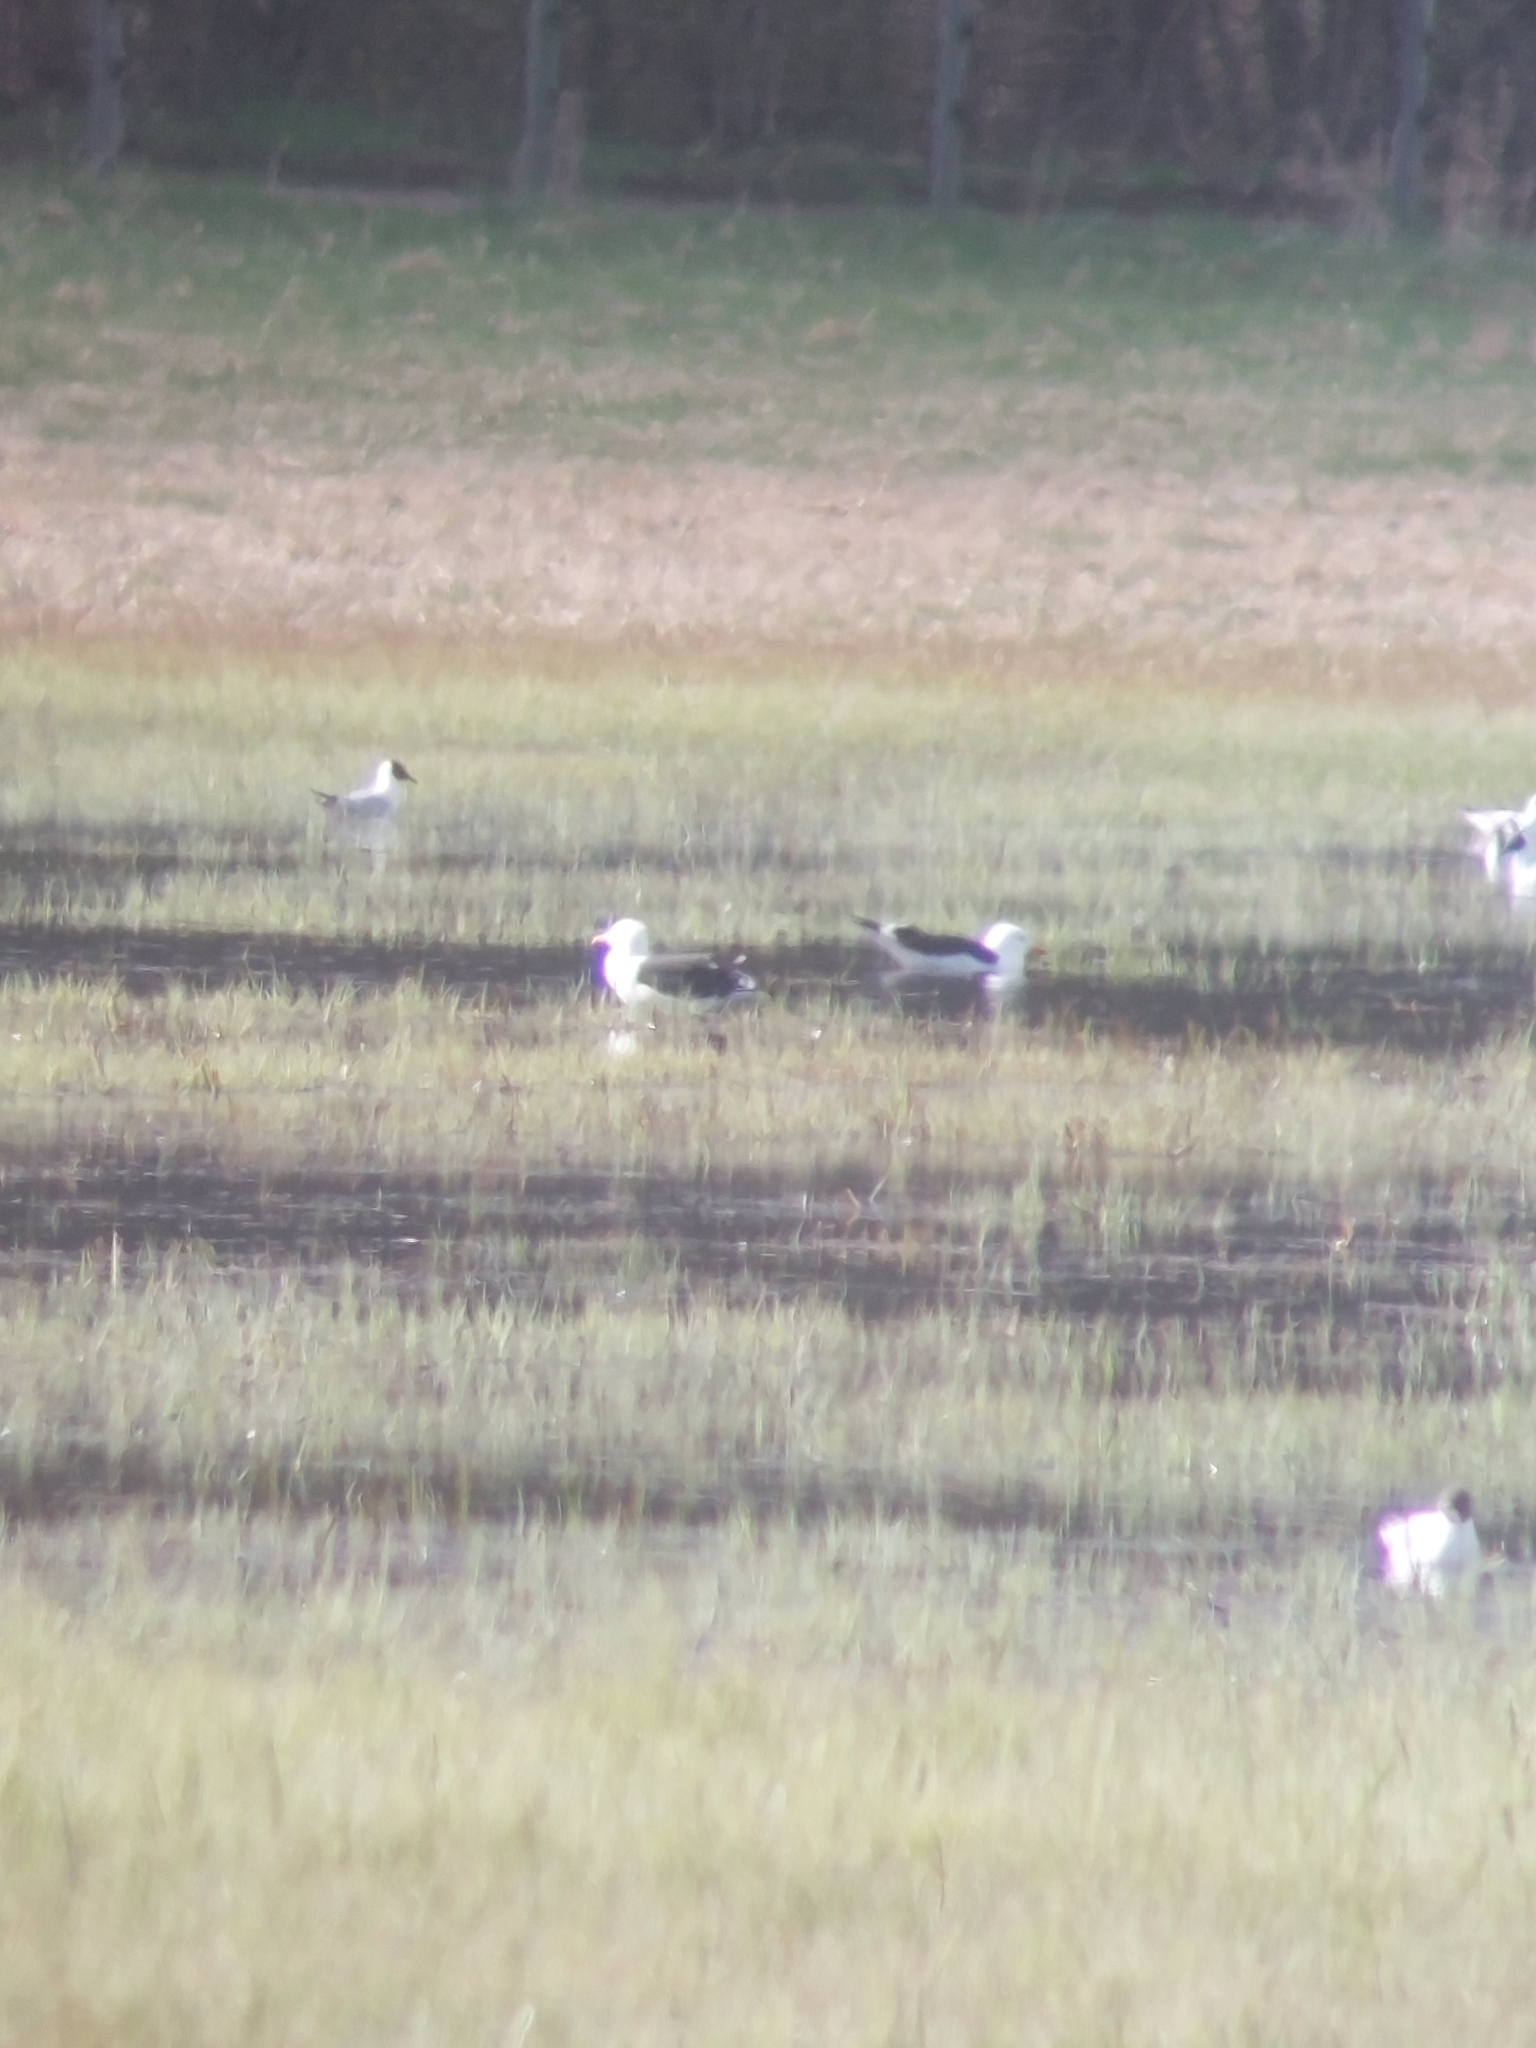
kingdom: Animalia
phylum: Chordata
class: Aves
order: Charadriiformes
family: Laridae
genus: Larus
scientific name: Larus fuscus
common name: Lesser black-backed gull
